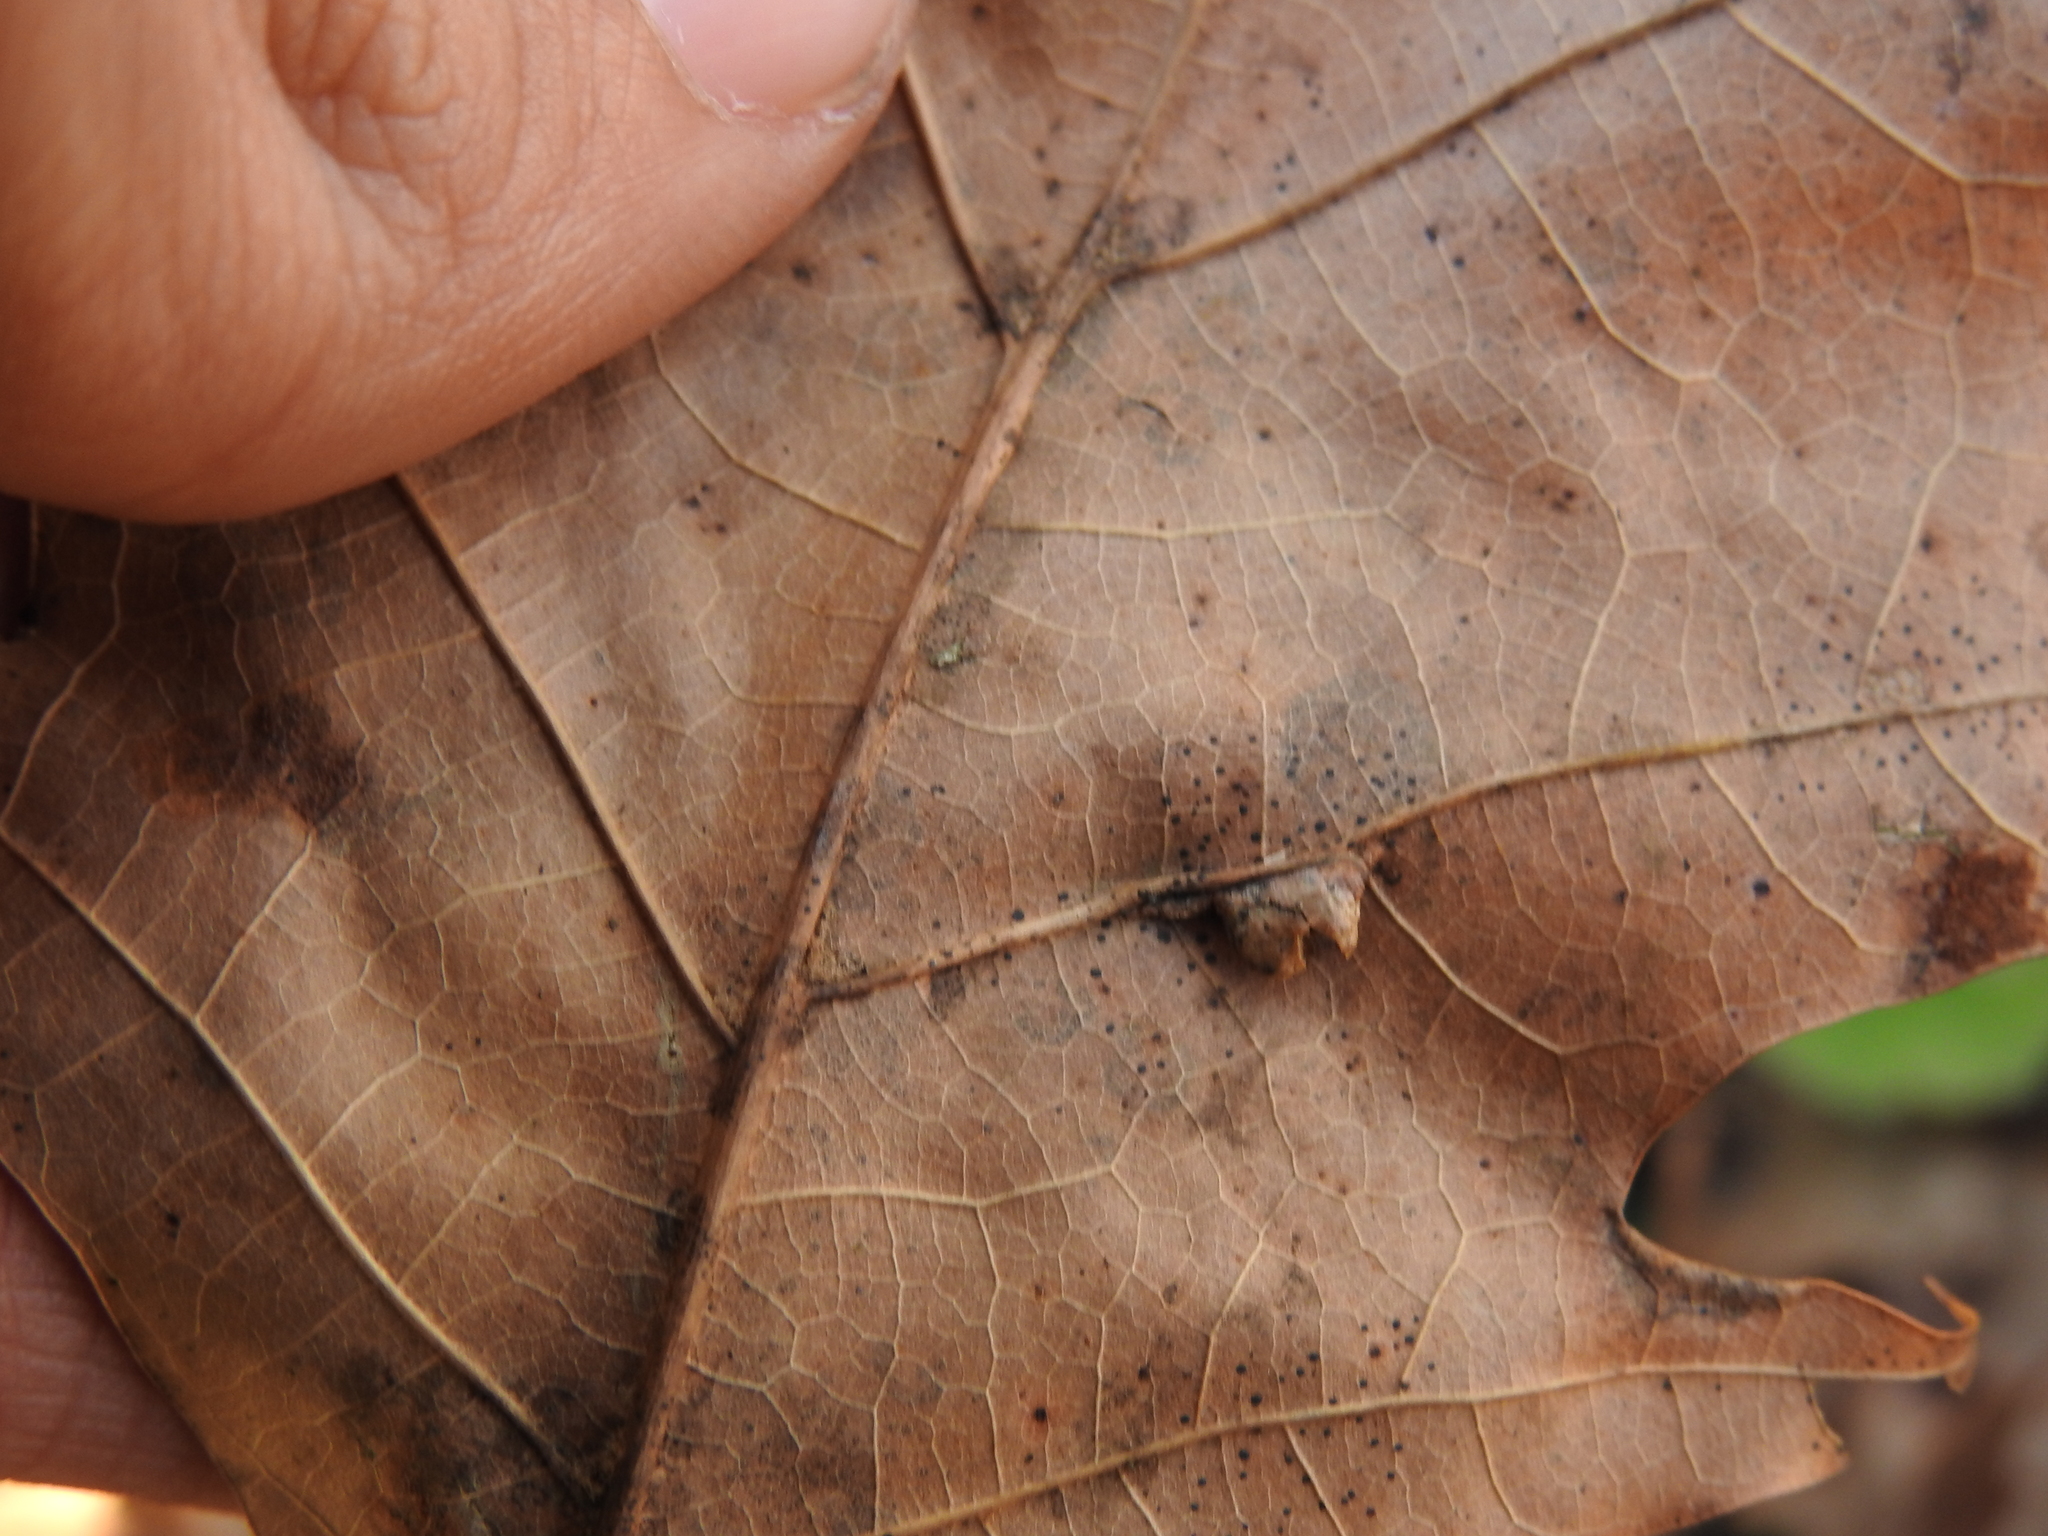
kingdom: Animalia
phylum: Arthropoda
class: Insecta
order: Diptera
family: Cecidomyiidae
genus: Macrodiplosis
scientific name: Macrodiplosis majalis
